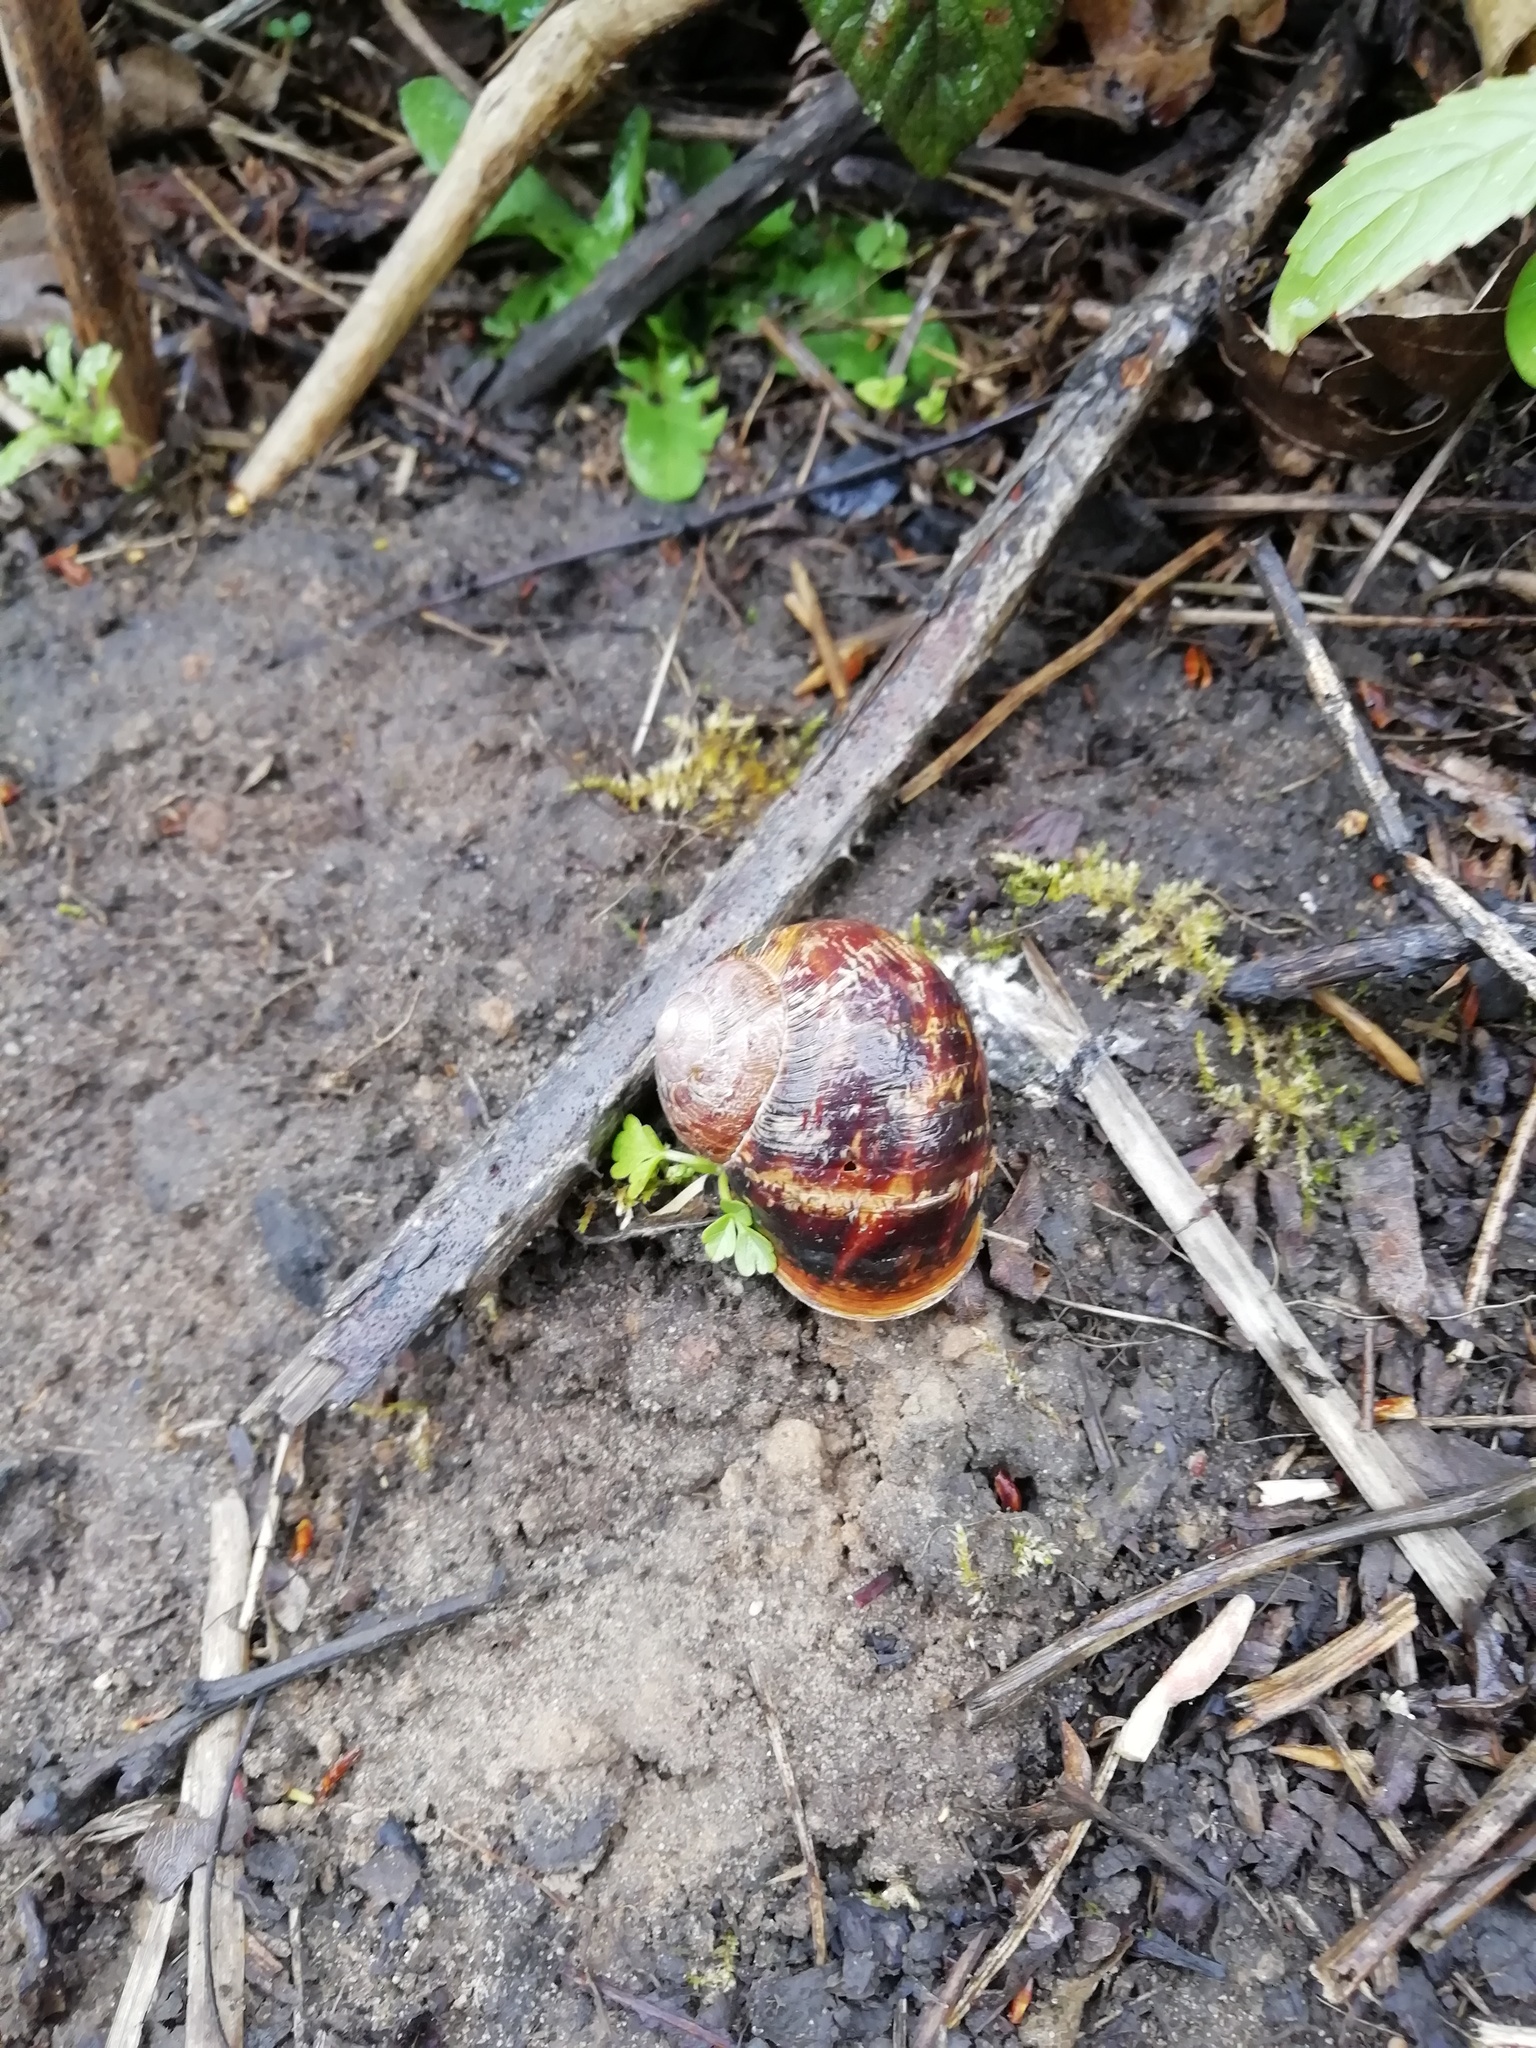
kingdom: Animalia
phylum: Mollusca
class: Gastropoda
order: Stylommatophora
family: Helicidae
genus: Cornu
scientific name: Cornu aspersum
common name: Brown garden snail
